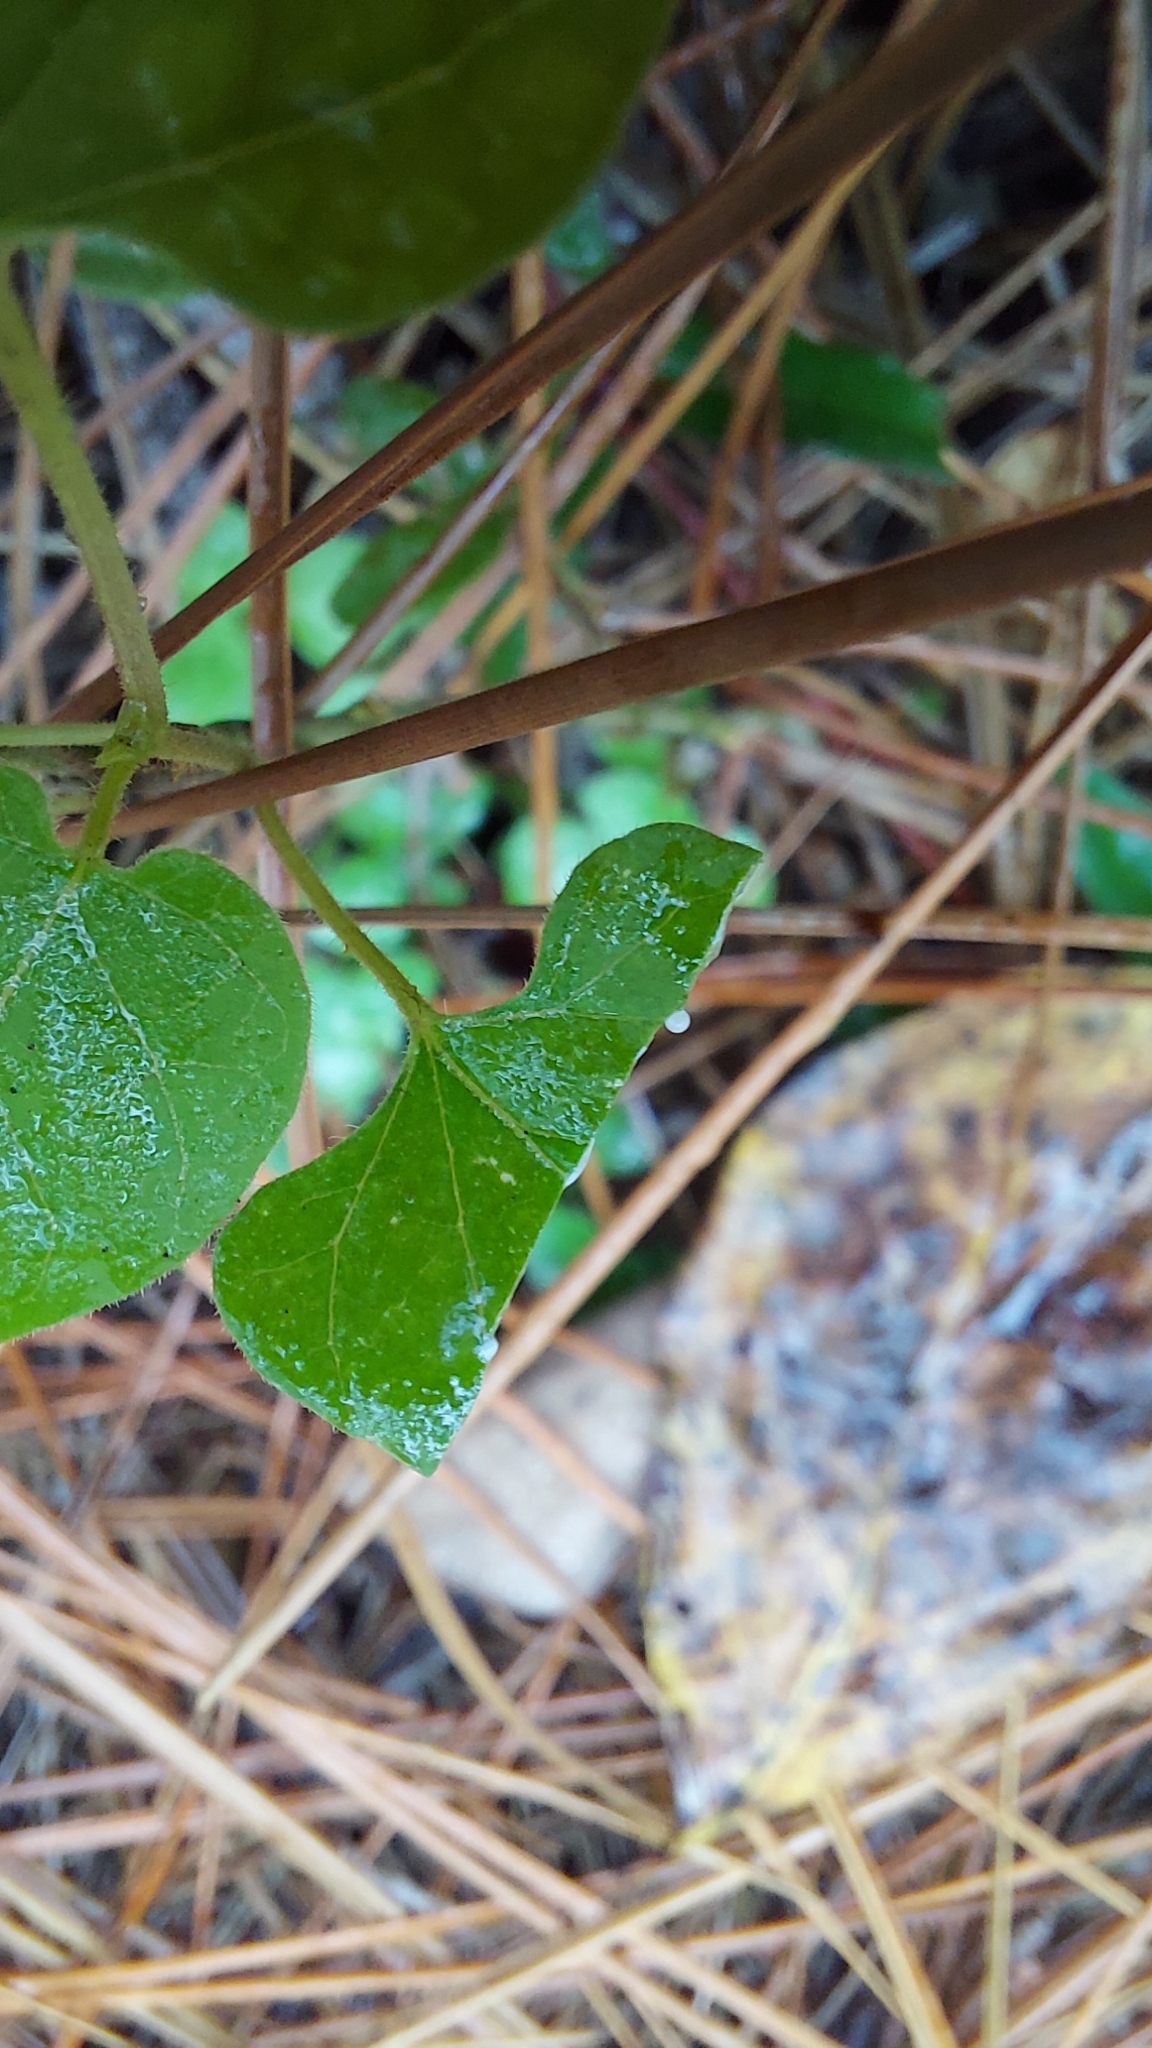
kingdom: Plantae
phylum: Tracheophyta
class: Magnoliopsida
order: Gentianales
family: Apocynaceae
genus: Matelea
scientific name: Matelea floridana
